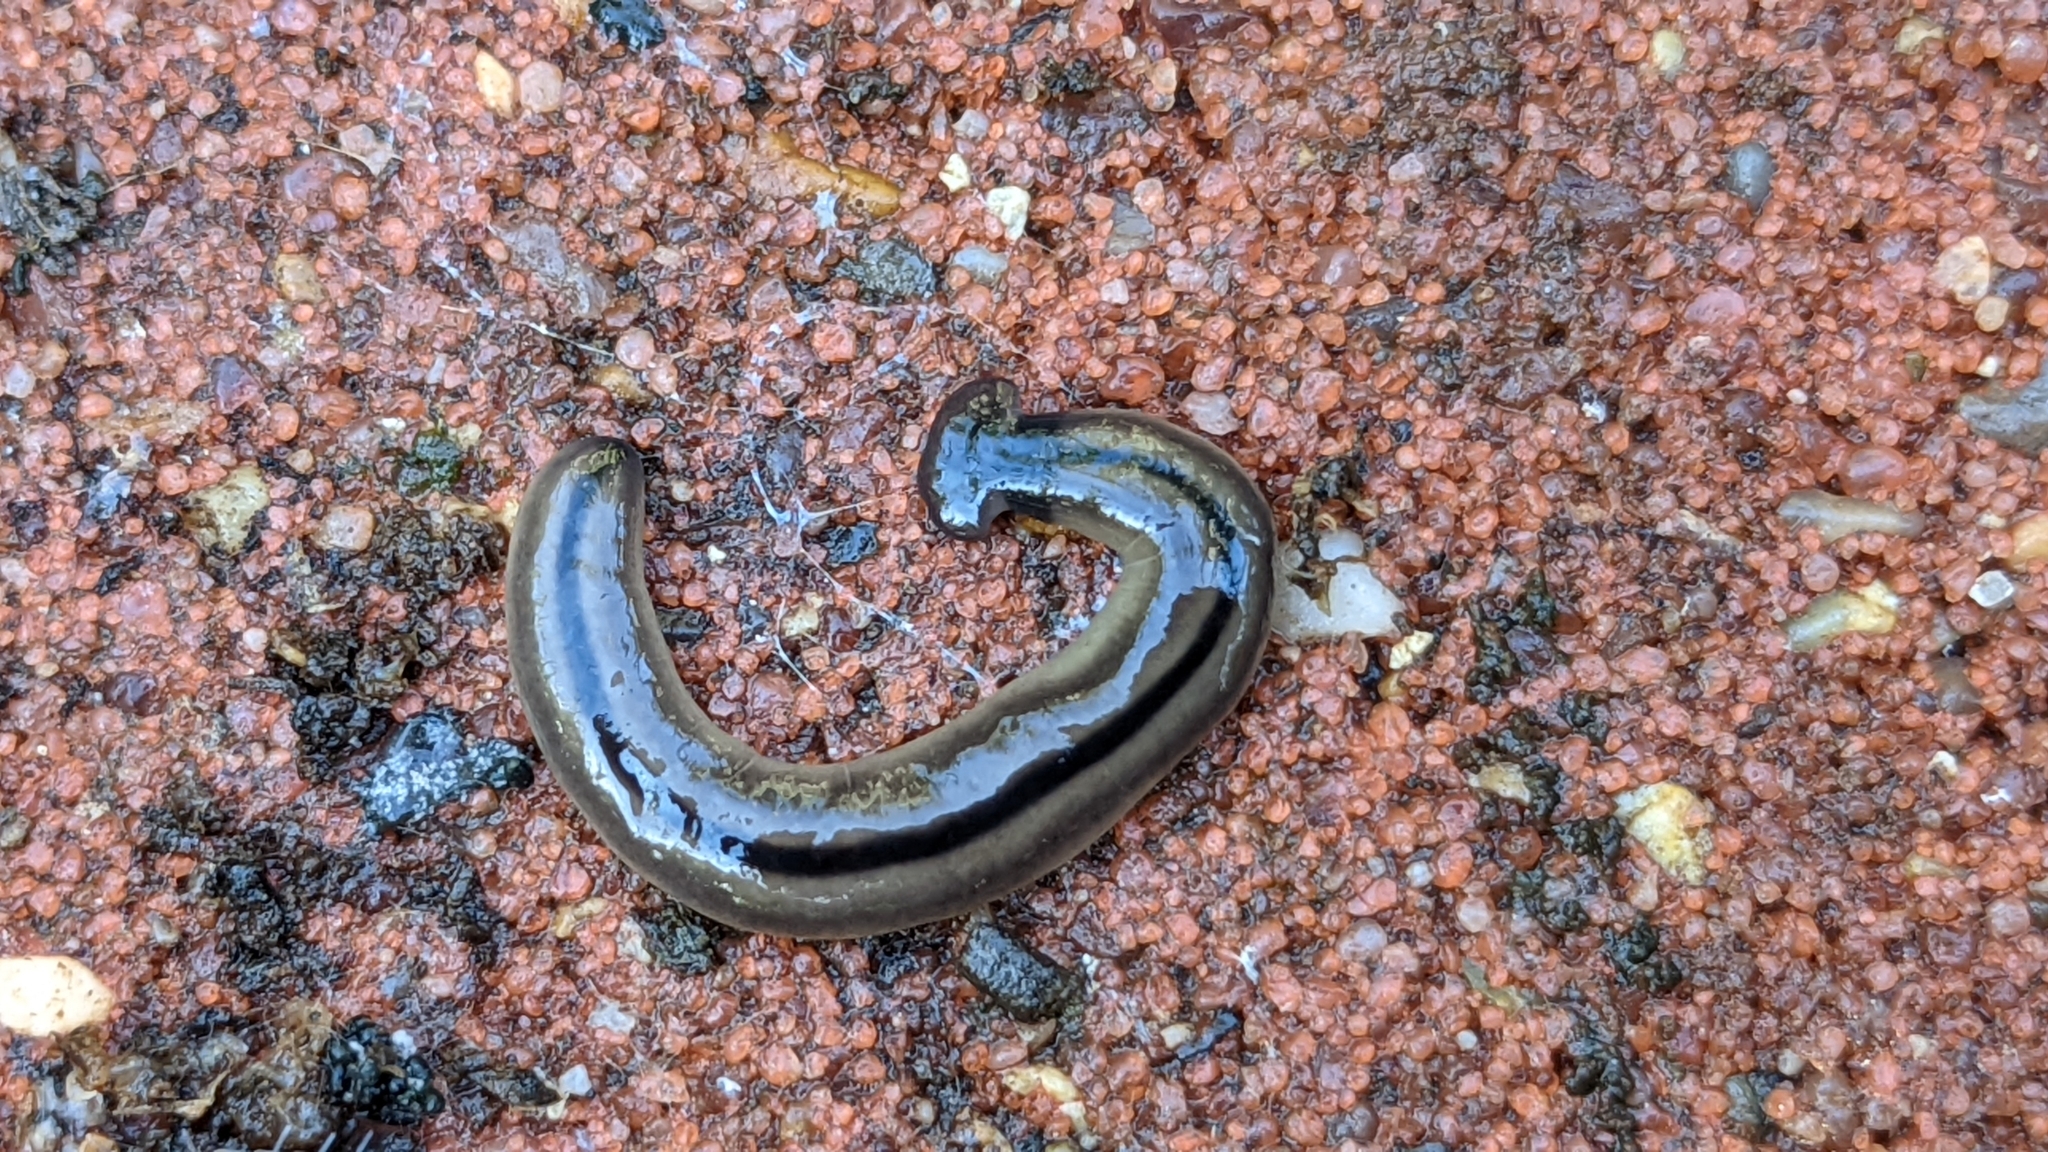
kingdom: Animalia
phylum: Platyhelminthes
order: Tricladida
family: Geoplanidae
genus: Bipalium
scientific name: Bipalium vagum
